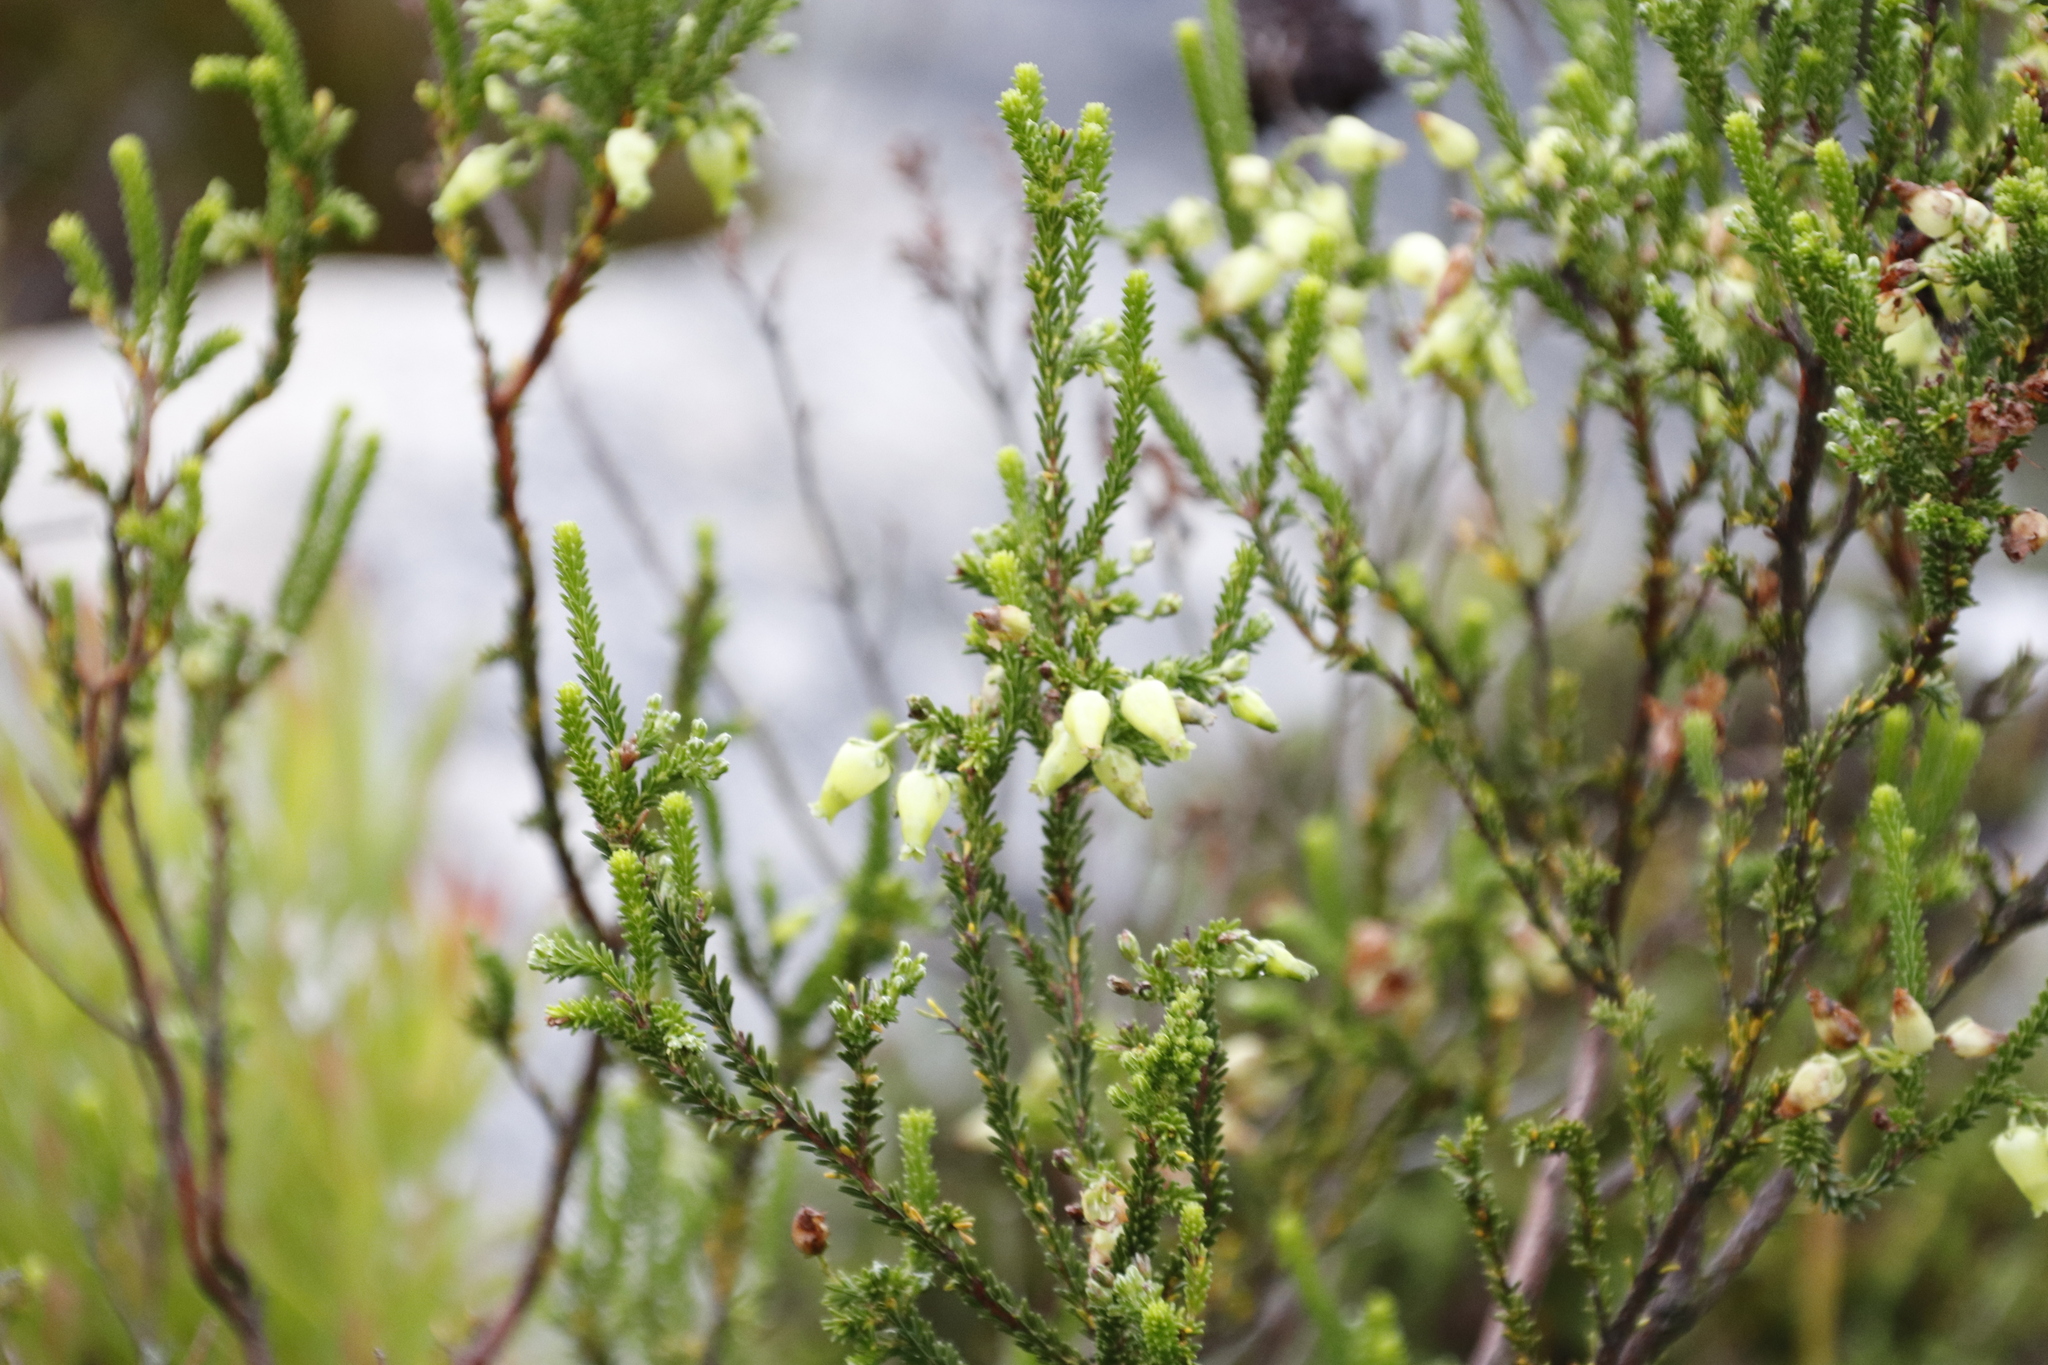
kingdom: Plantae
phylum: Tracheophyta
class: Magnoliopsida
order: Ericales
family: Ericaceae
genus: Erica
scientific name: Erica urna-viridis
